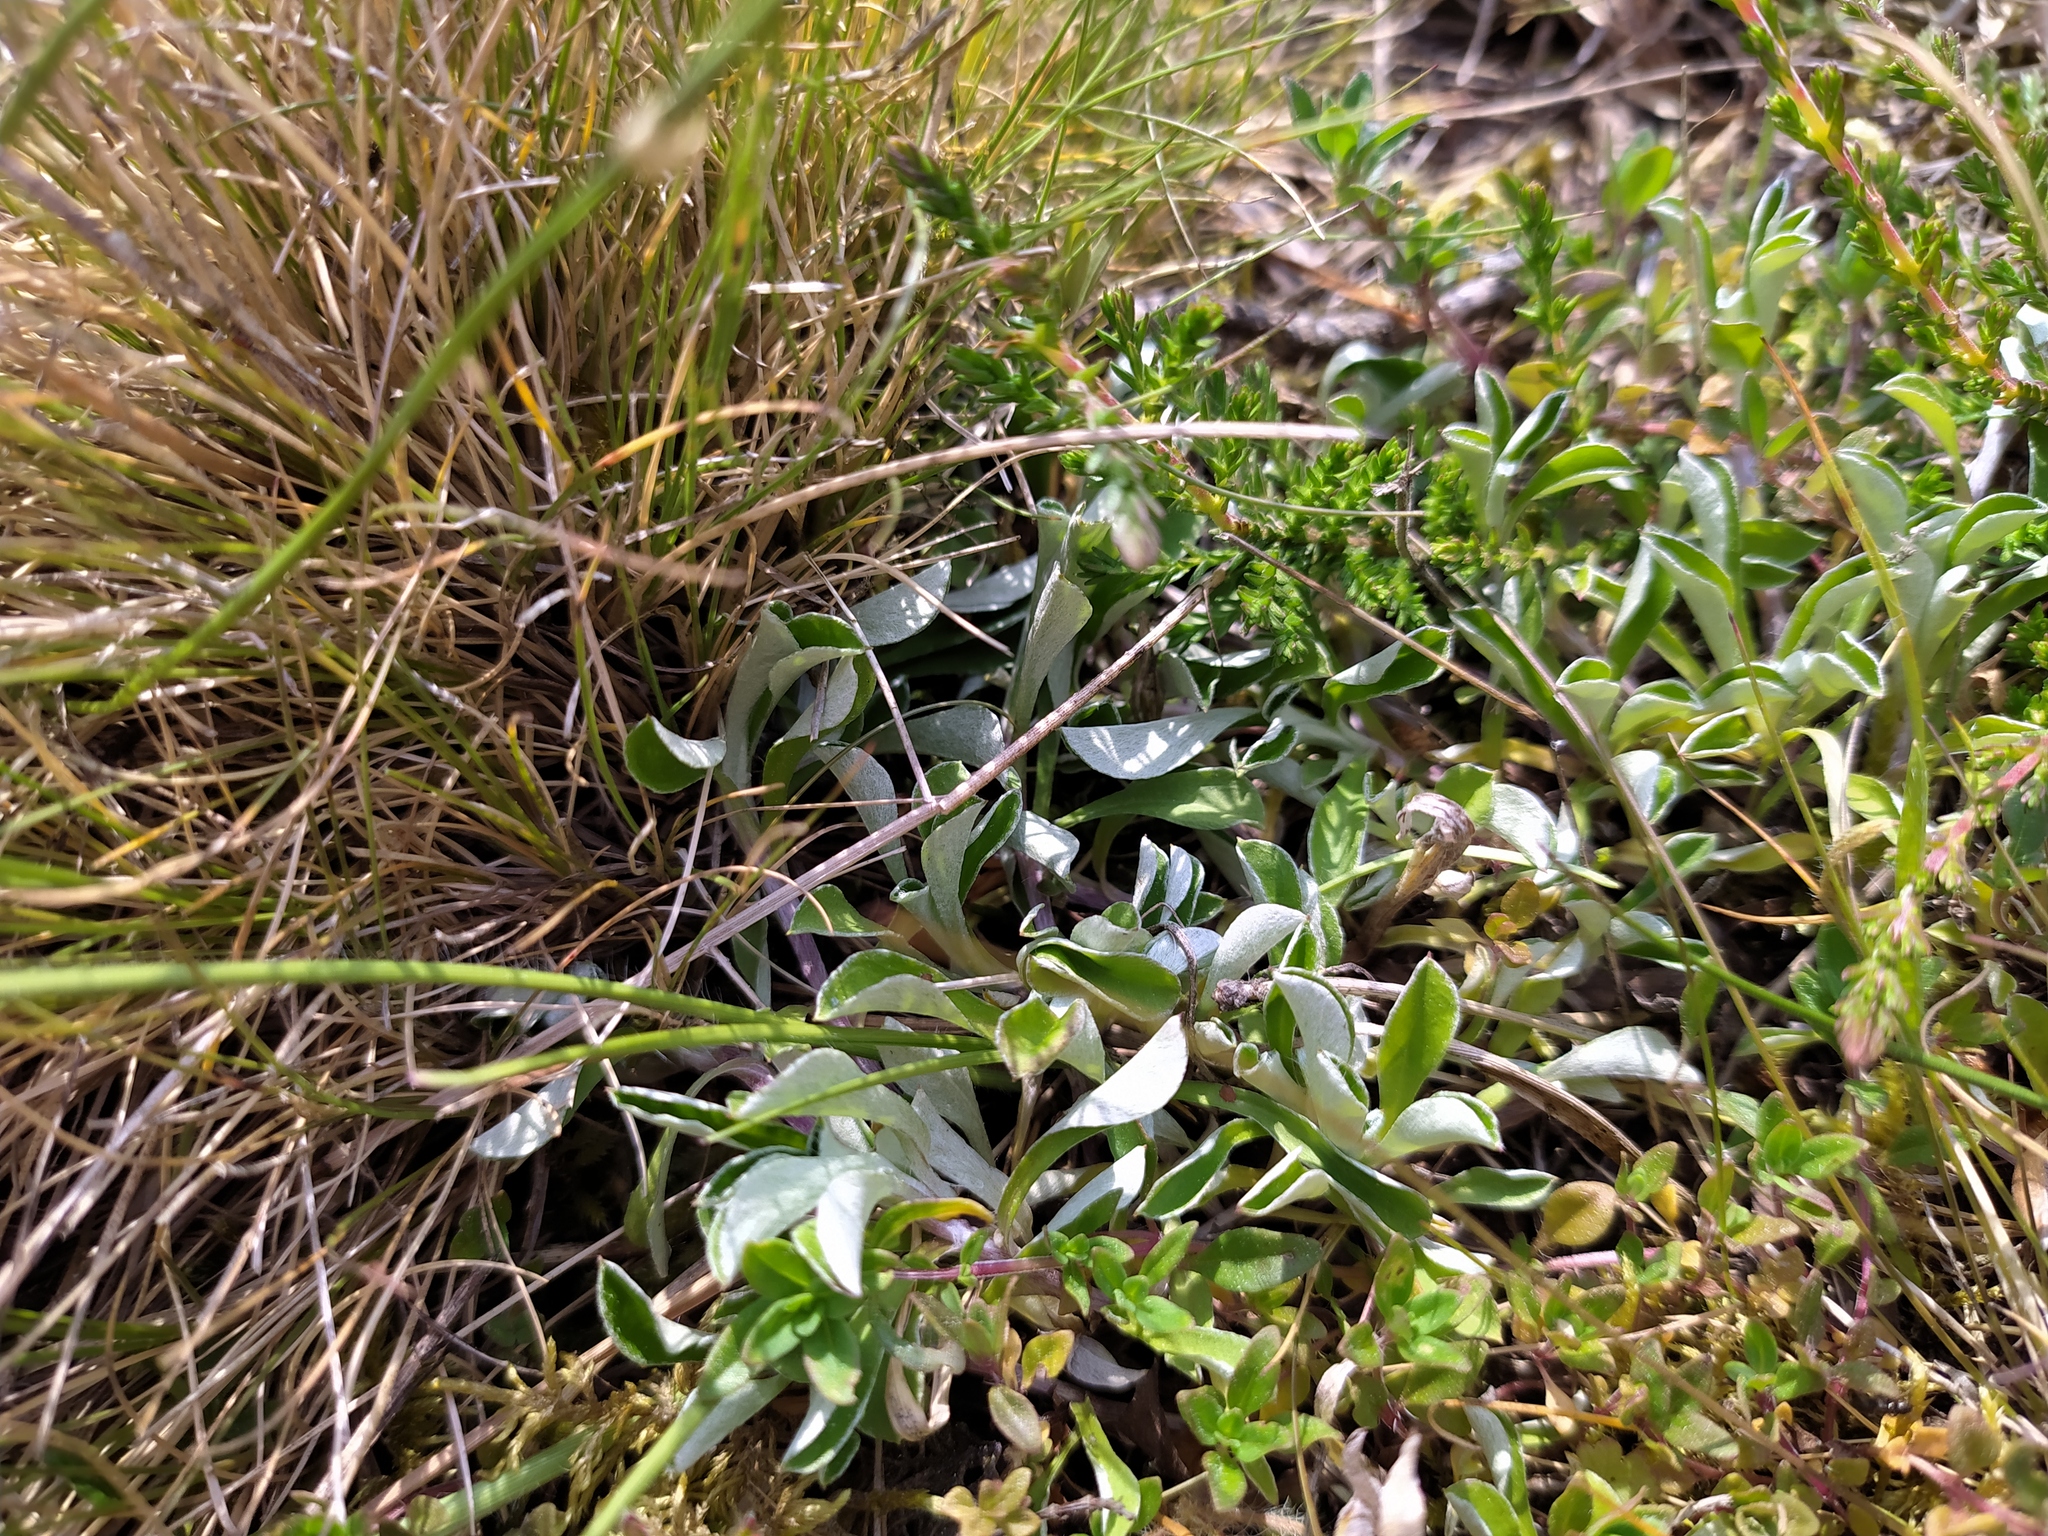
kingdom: Plantae
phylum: Tracheophyta
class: Magnoliopsida
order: Asterales
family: Asteraceae
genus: Antennaria
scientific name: Antennaria dioica
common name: Mountain everlasting
